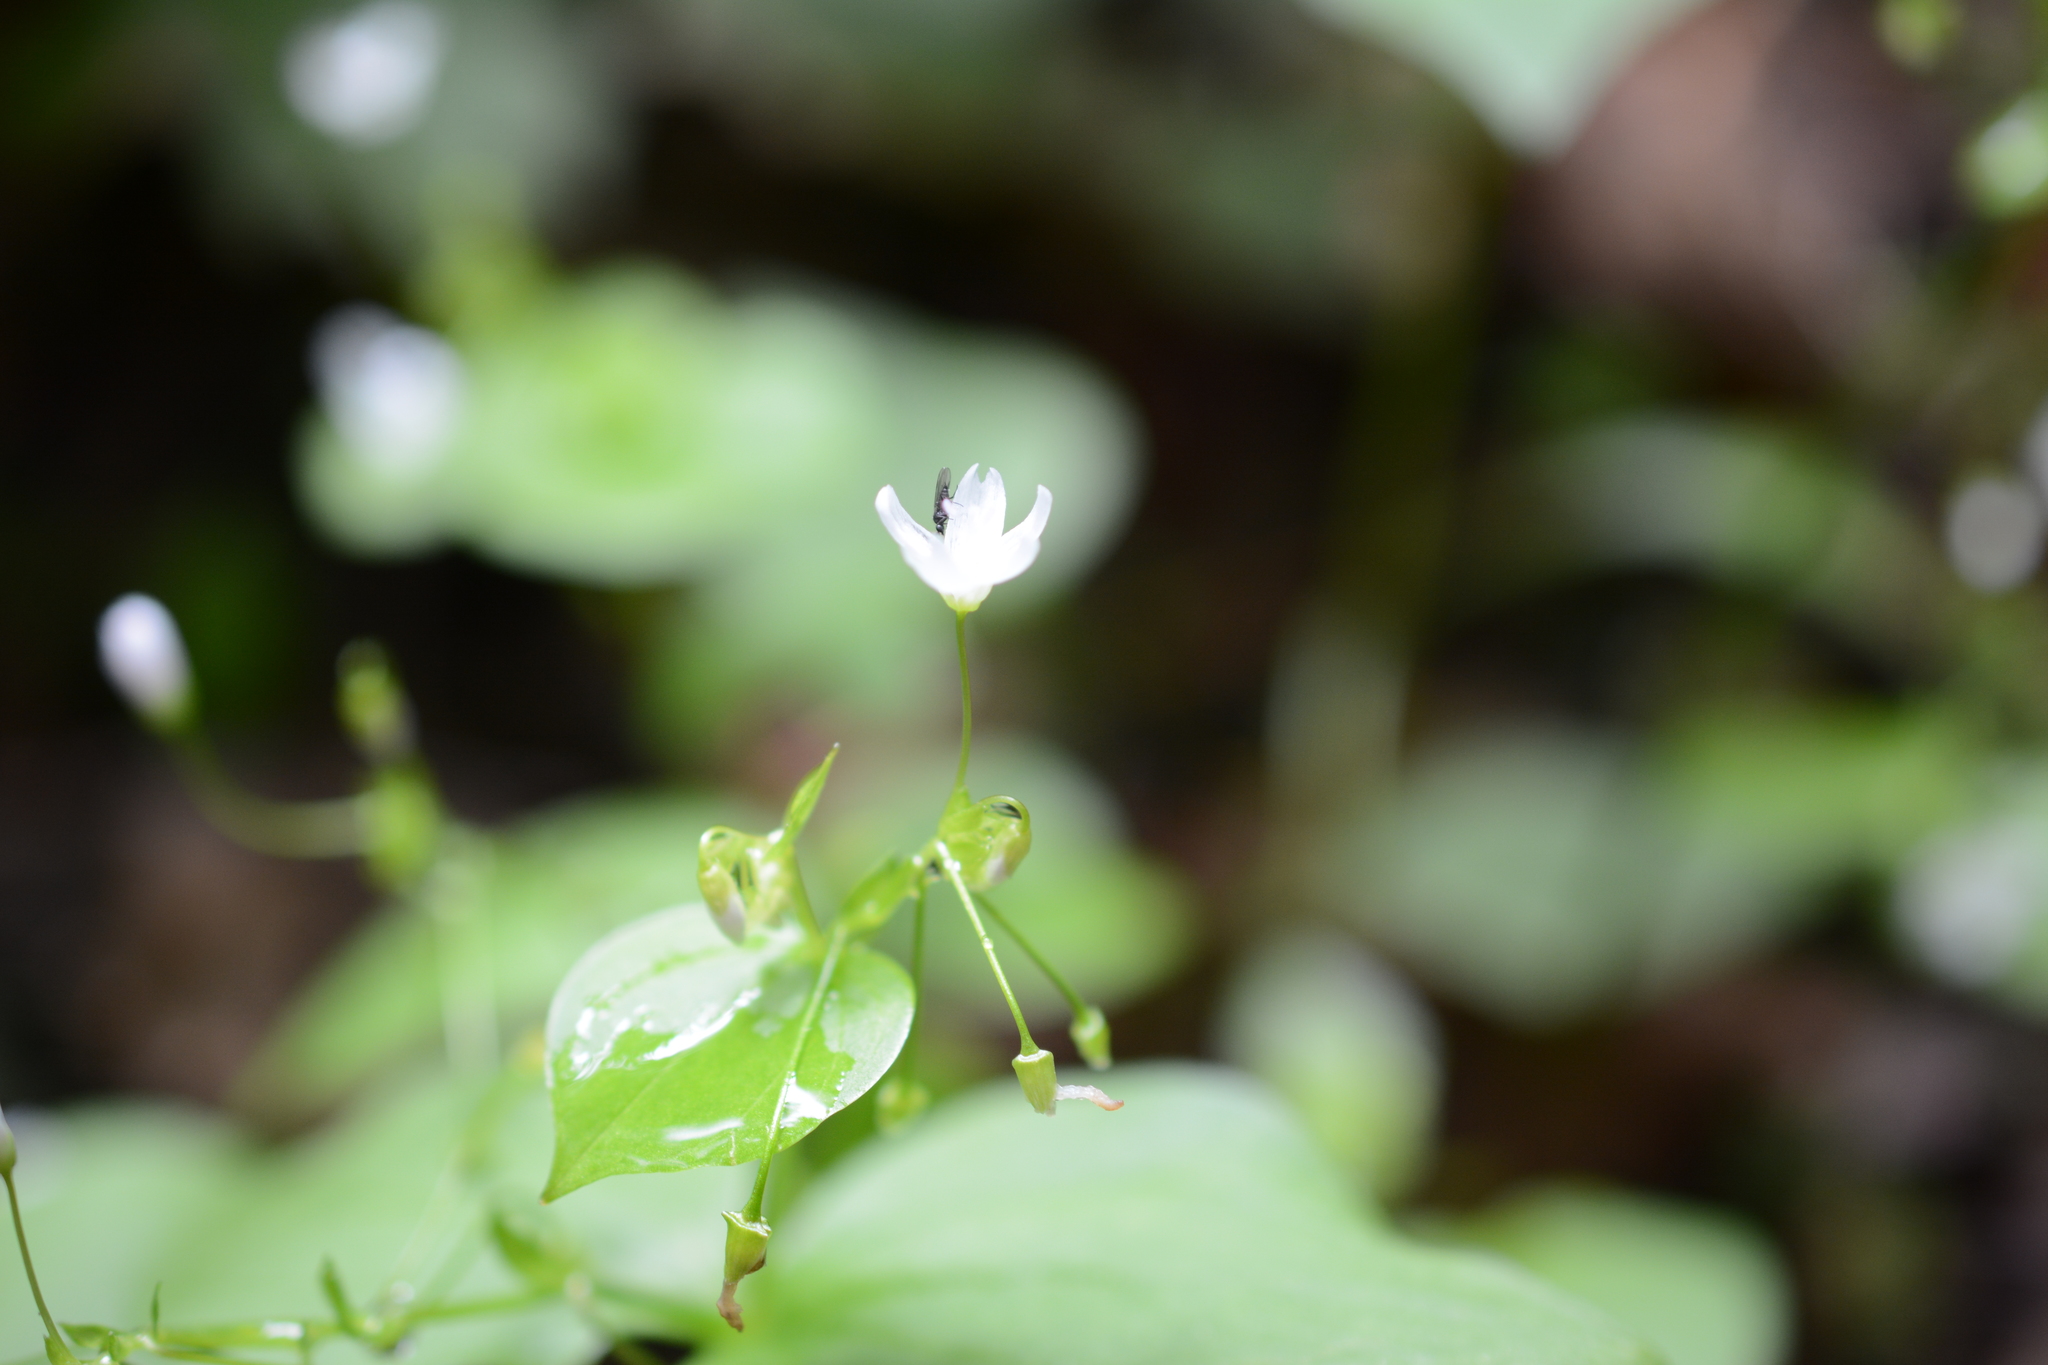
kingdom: Plantae
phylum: Tracheophyta
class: Magnoliopsida
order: Caryophyllales
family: Montiaceae
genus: Claytonia
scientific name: Claytonia sibirica
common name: Pink purslane
